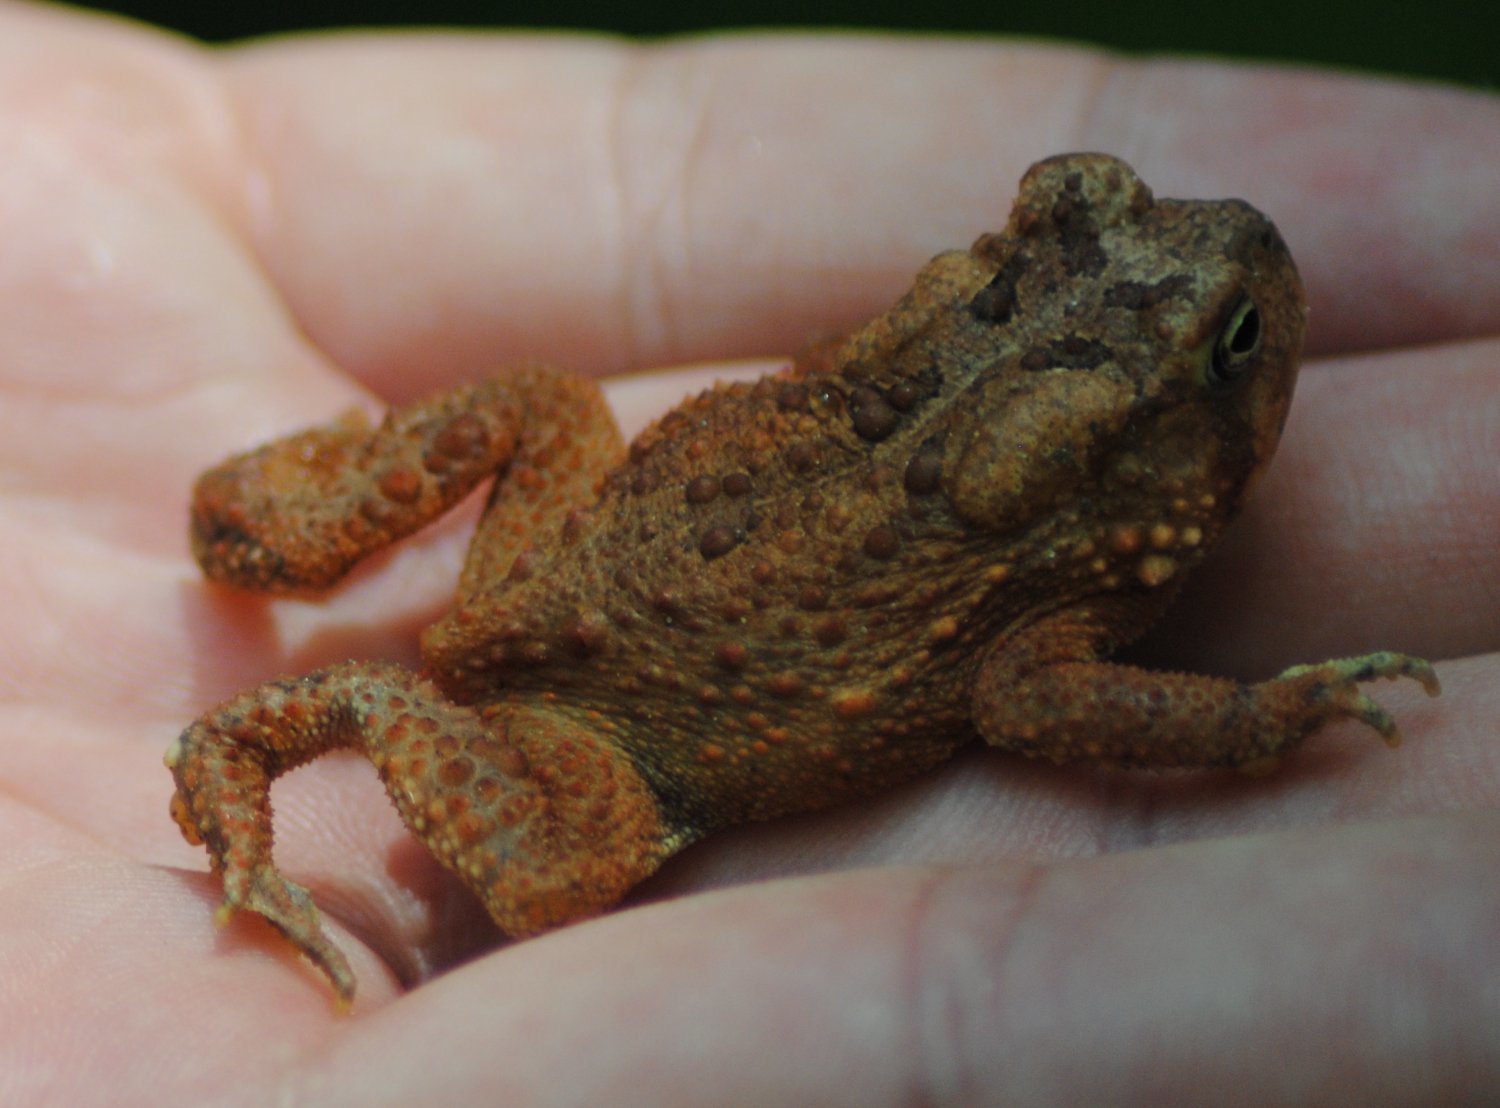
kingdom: Animalia
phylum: Chordata
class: Amphibia
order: Anura
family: Bufonidae
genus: Anaxyrus
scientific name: Anaxyrus americanus
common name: American toad
